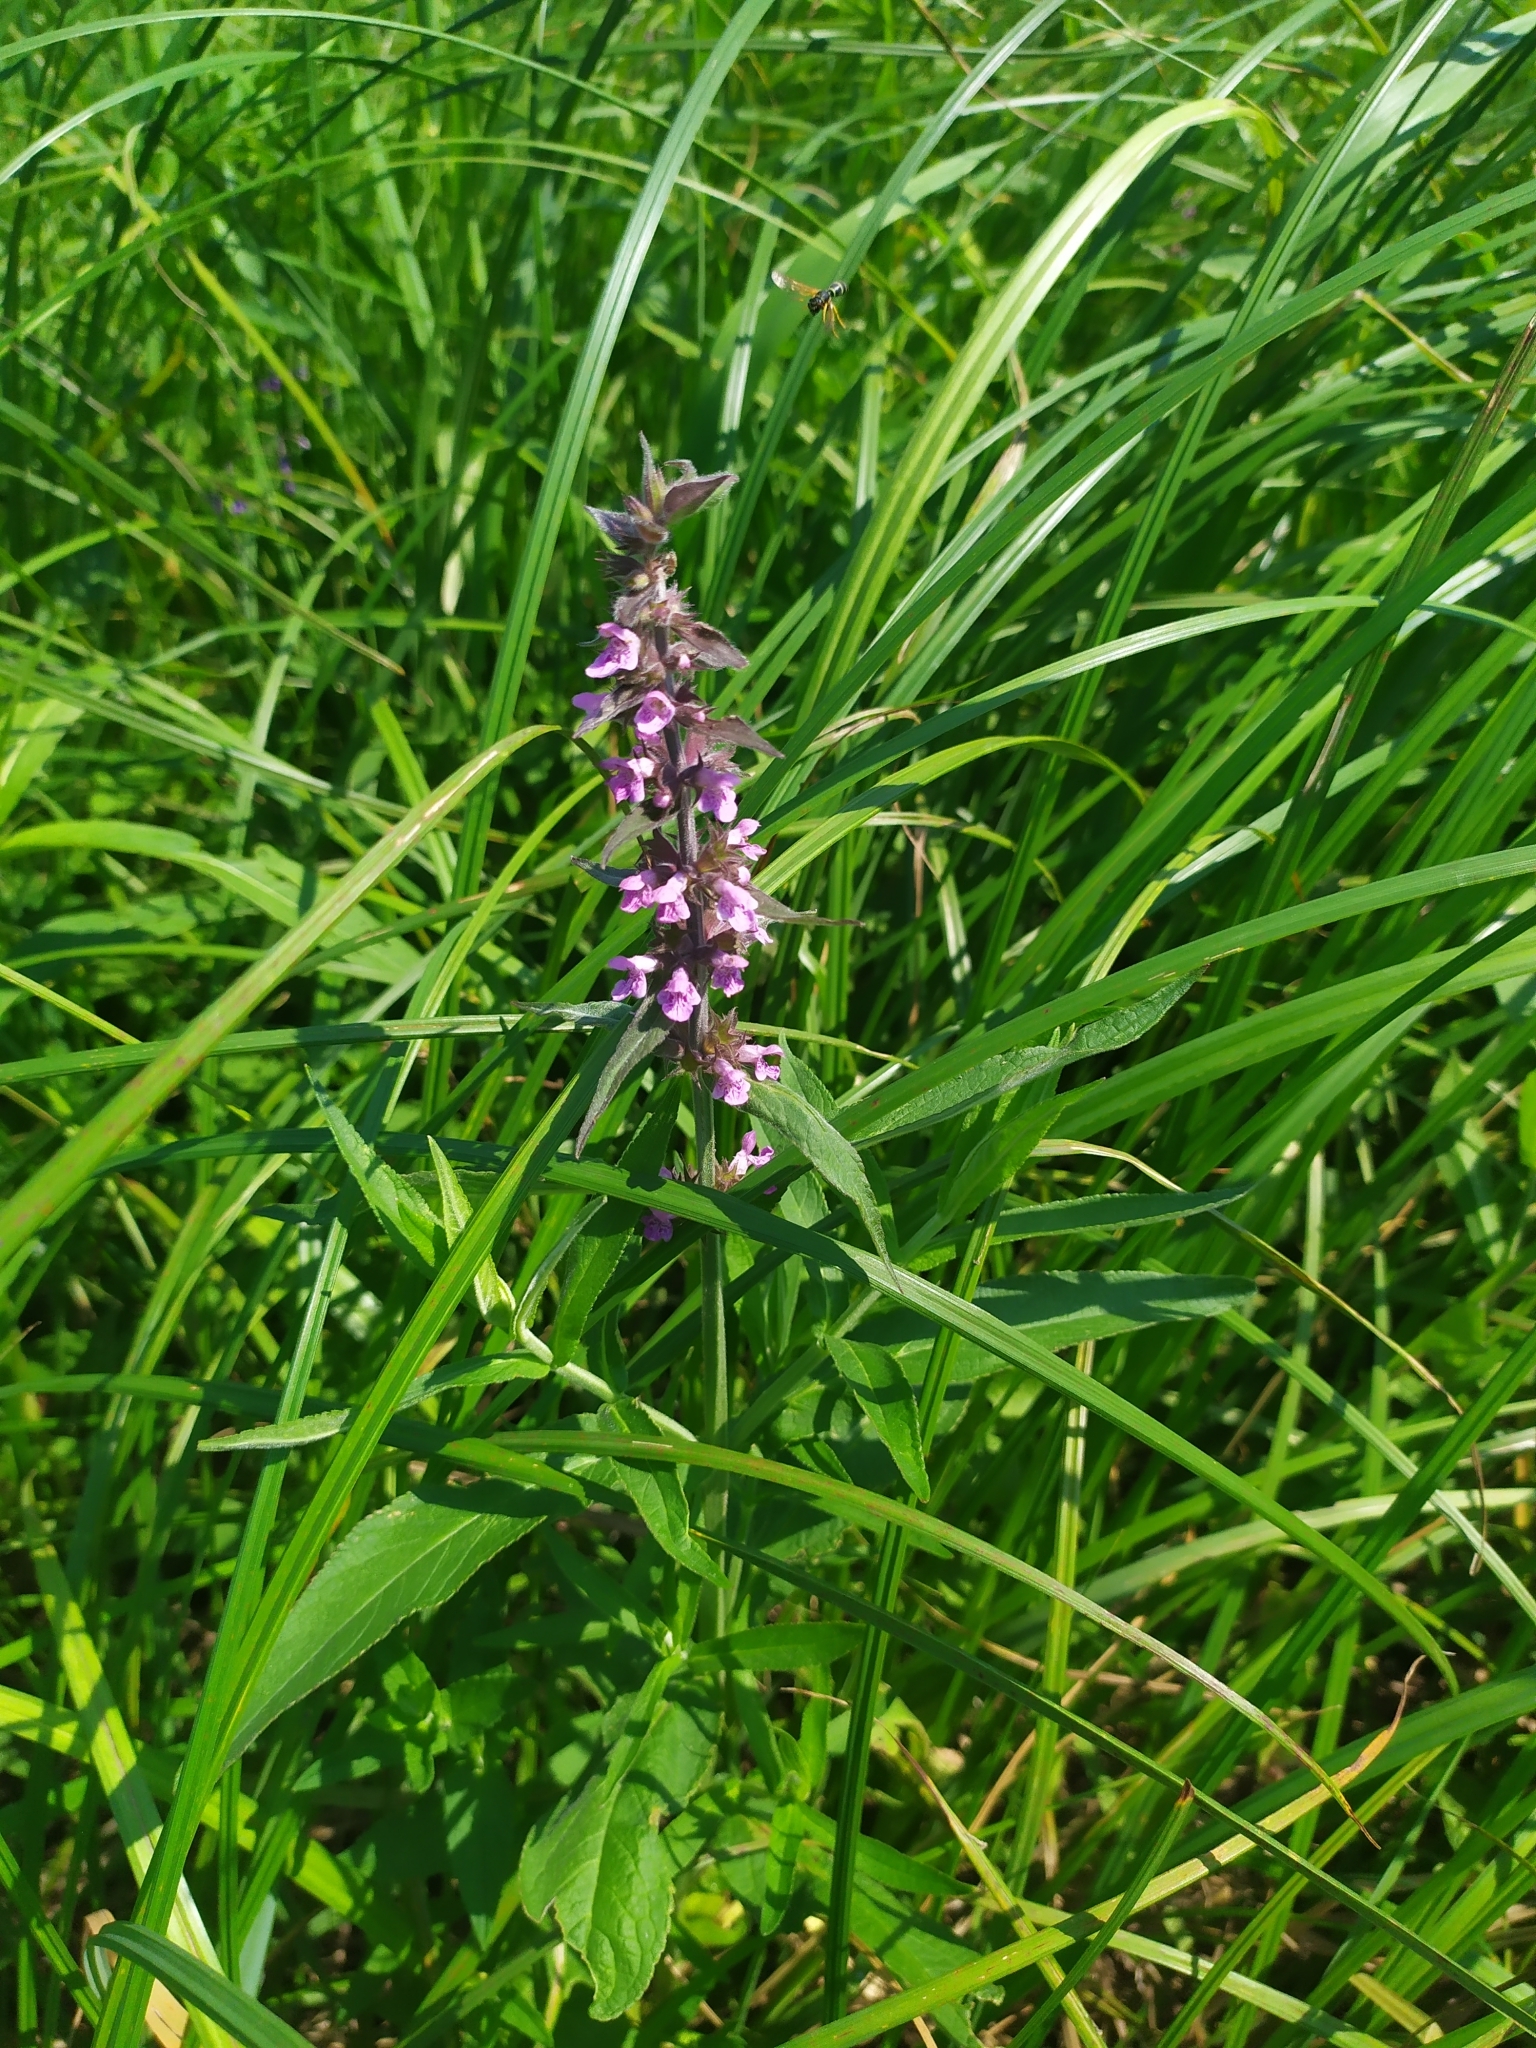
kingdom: Plantae
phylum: Tracheophyta
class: Magnoliopsida
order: Lamiales
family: Lamiaceae
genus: Stachys
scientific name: Stachys palustris
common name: Marsh woundwort
